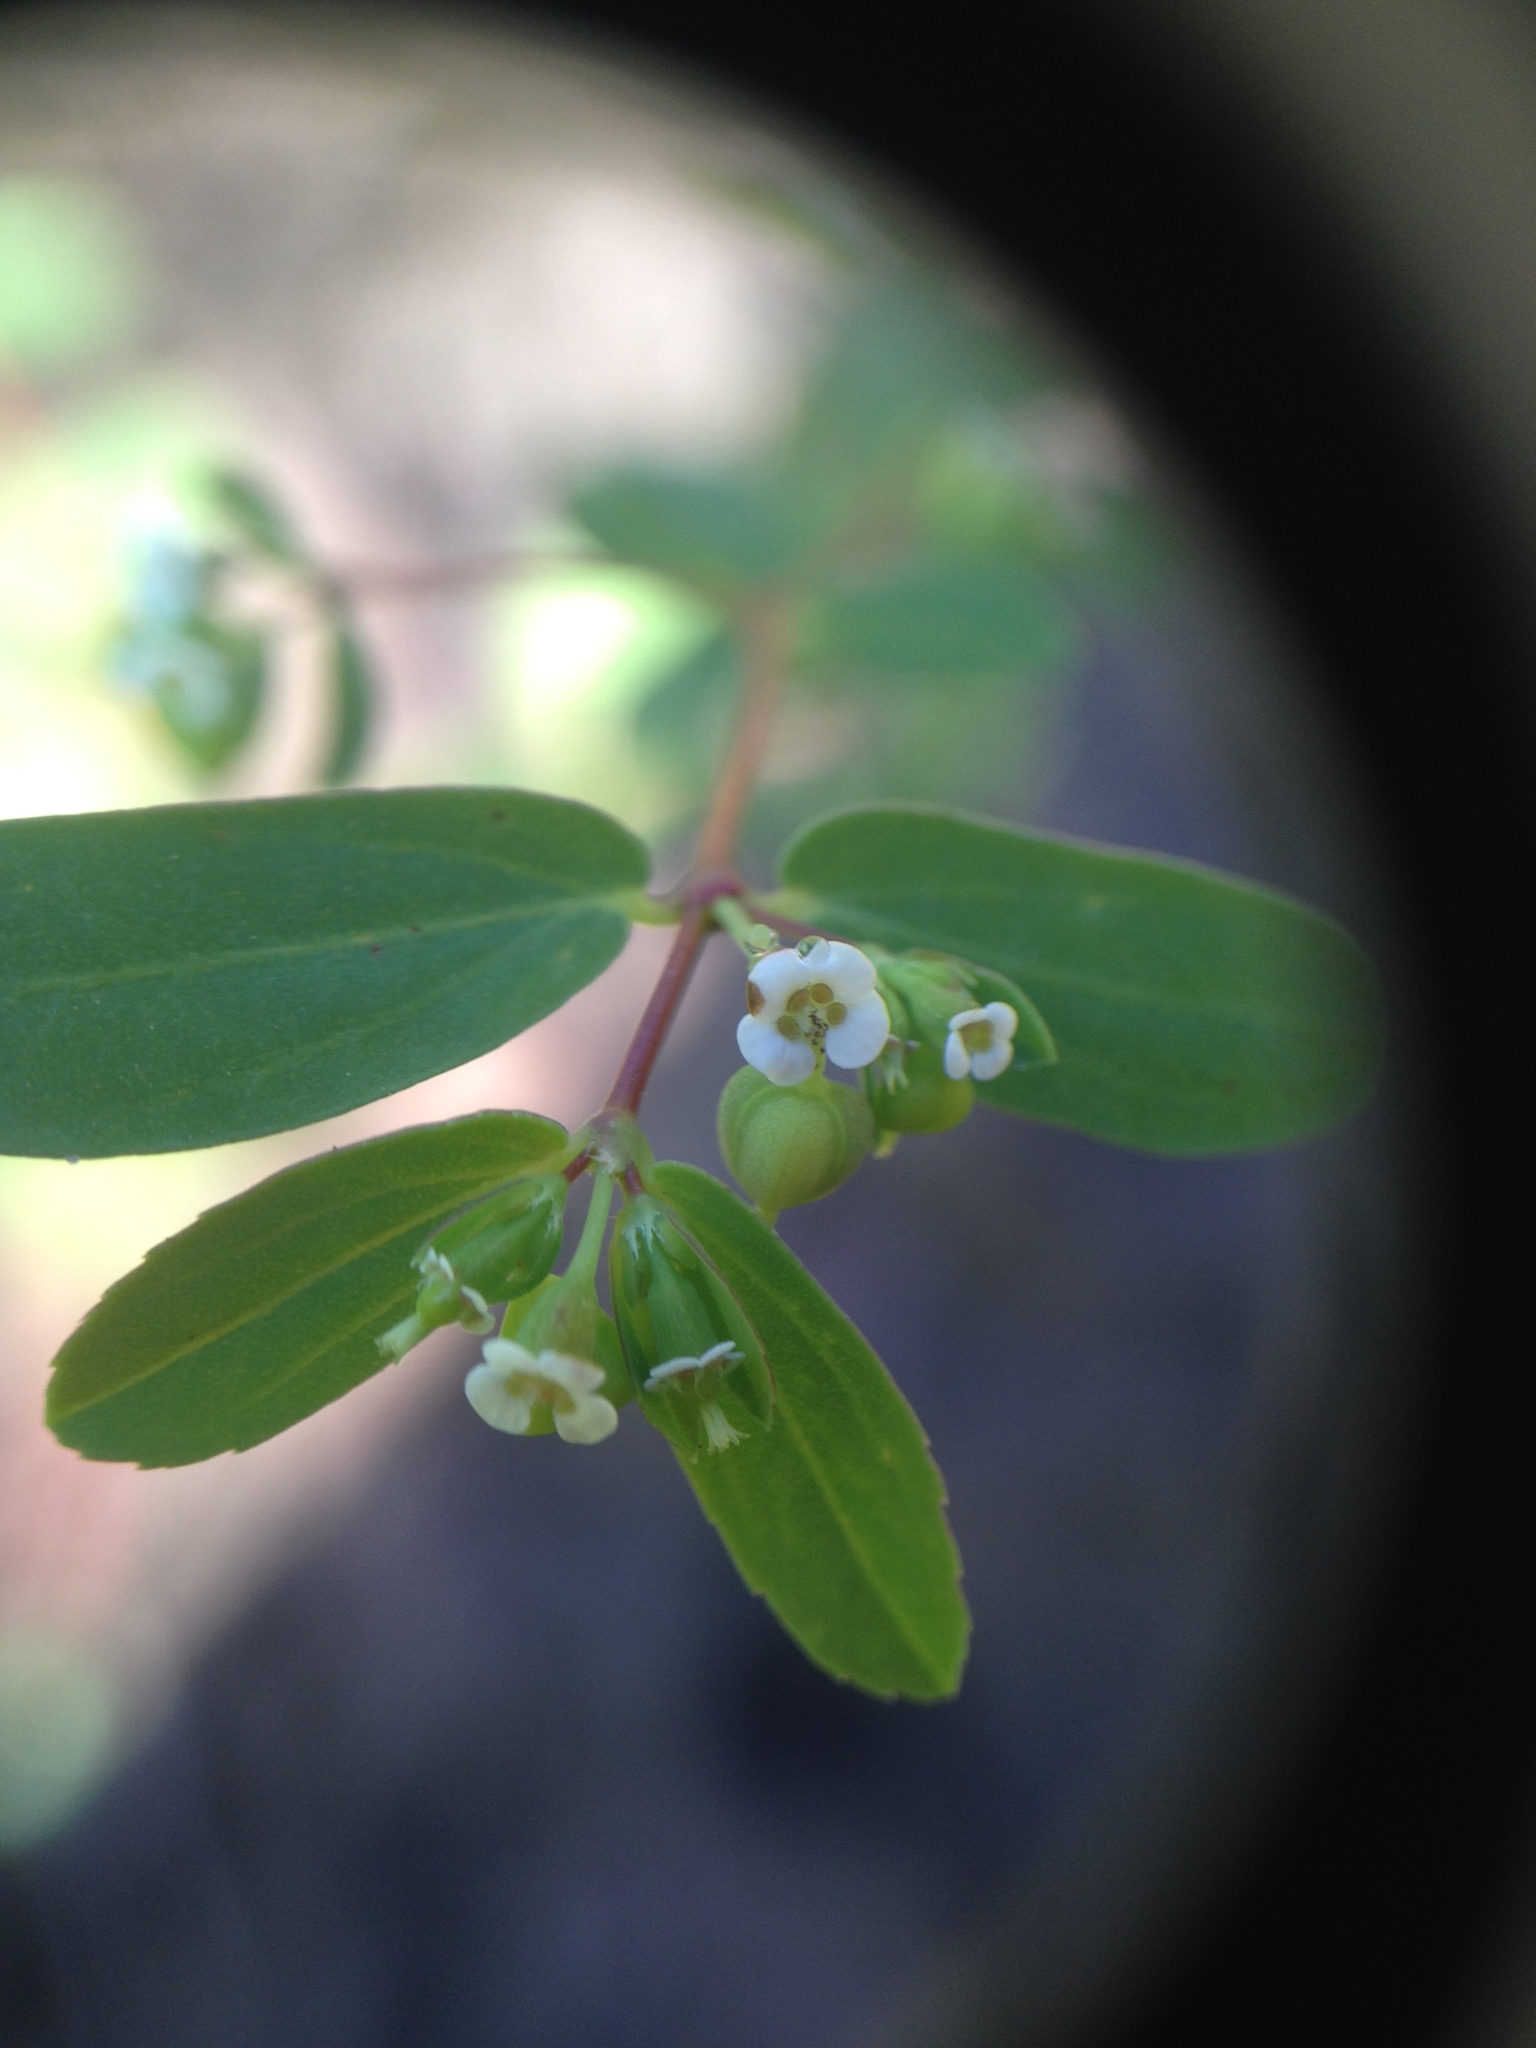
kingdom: Plantae
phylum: Tracheophyta
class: Magnoliopsida
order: Malpighiales
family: Euphorbiaceae
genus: Euphorbia
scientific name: Euphorbia hyssopifolia
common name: Hyssopleaf sandmat
